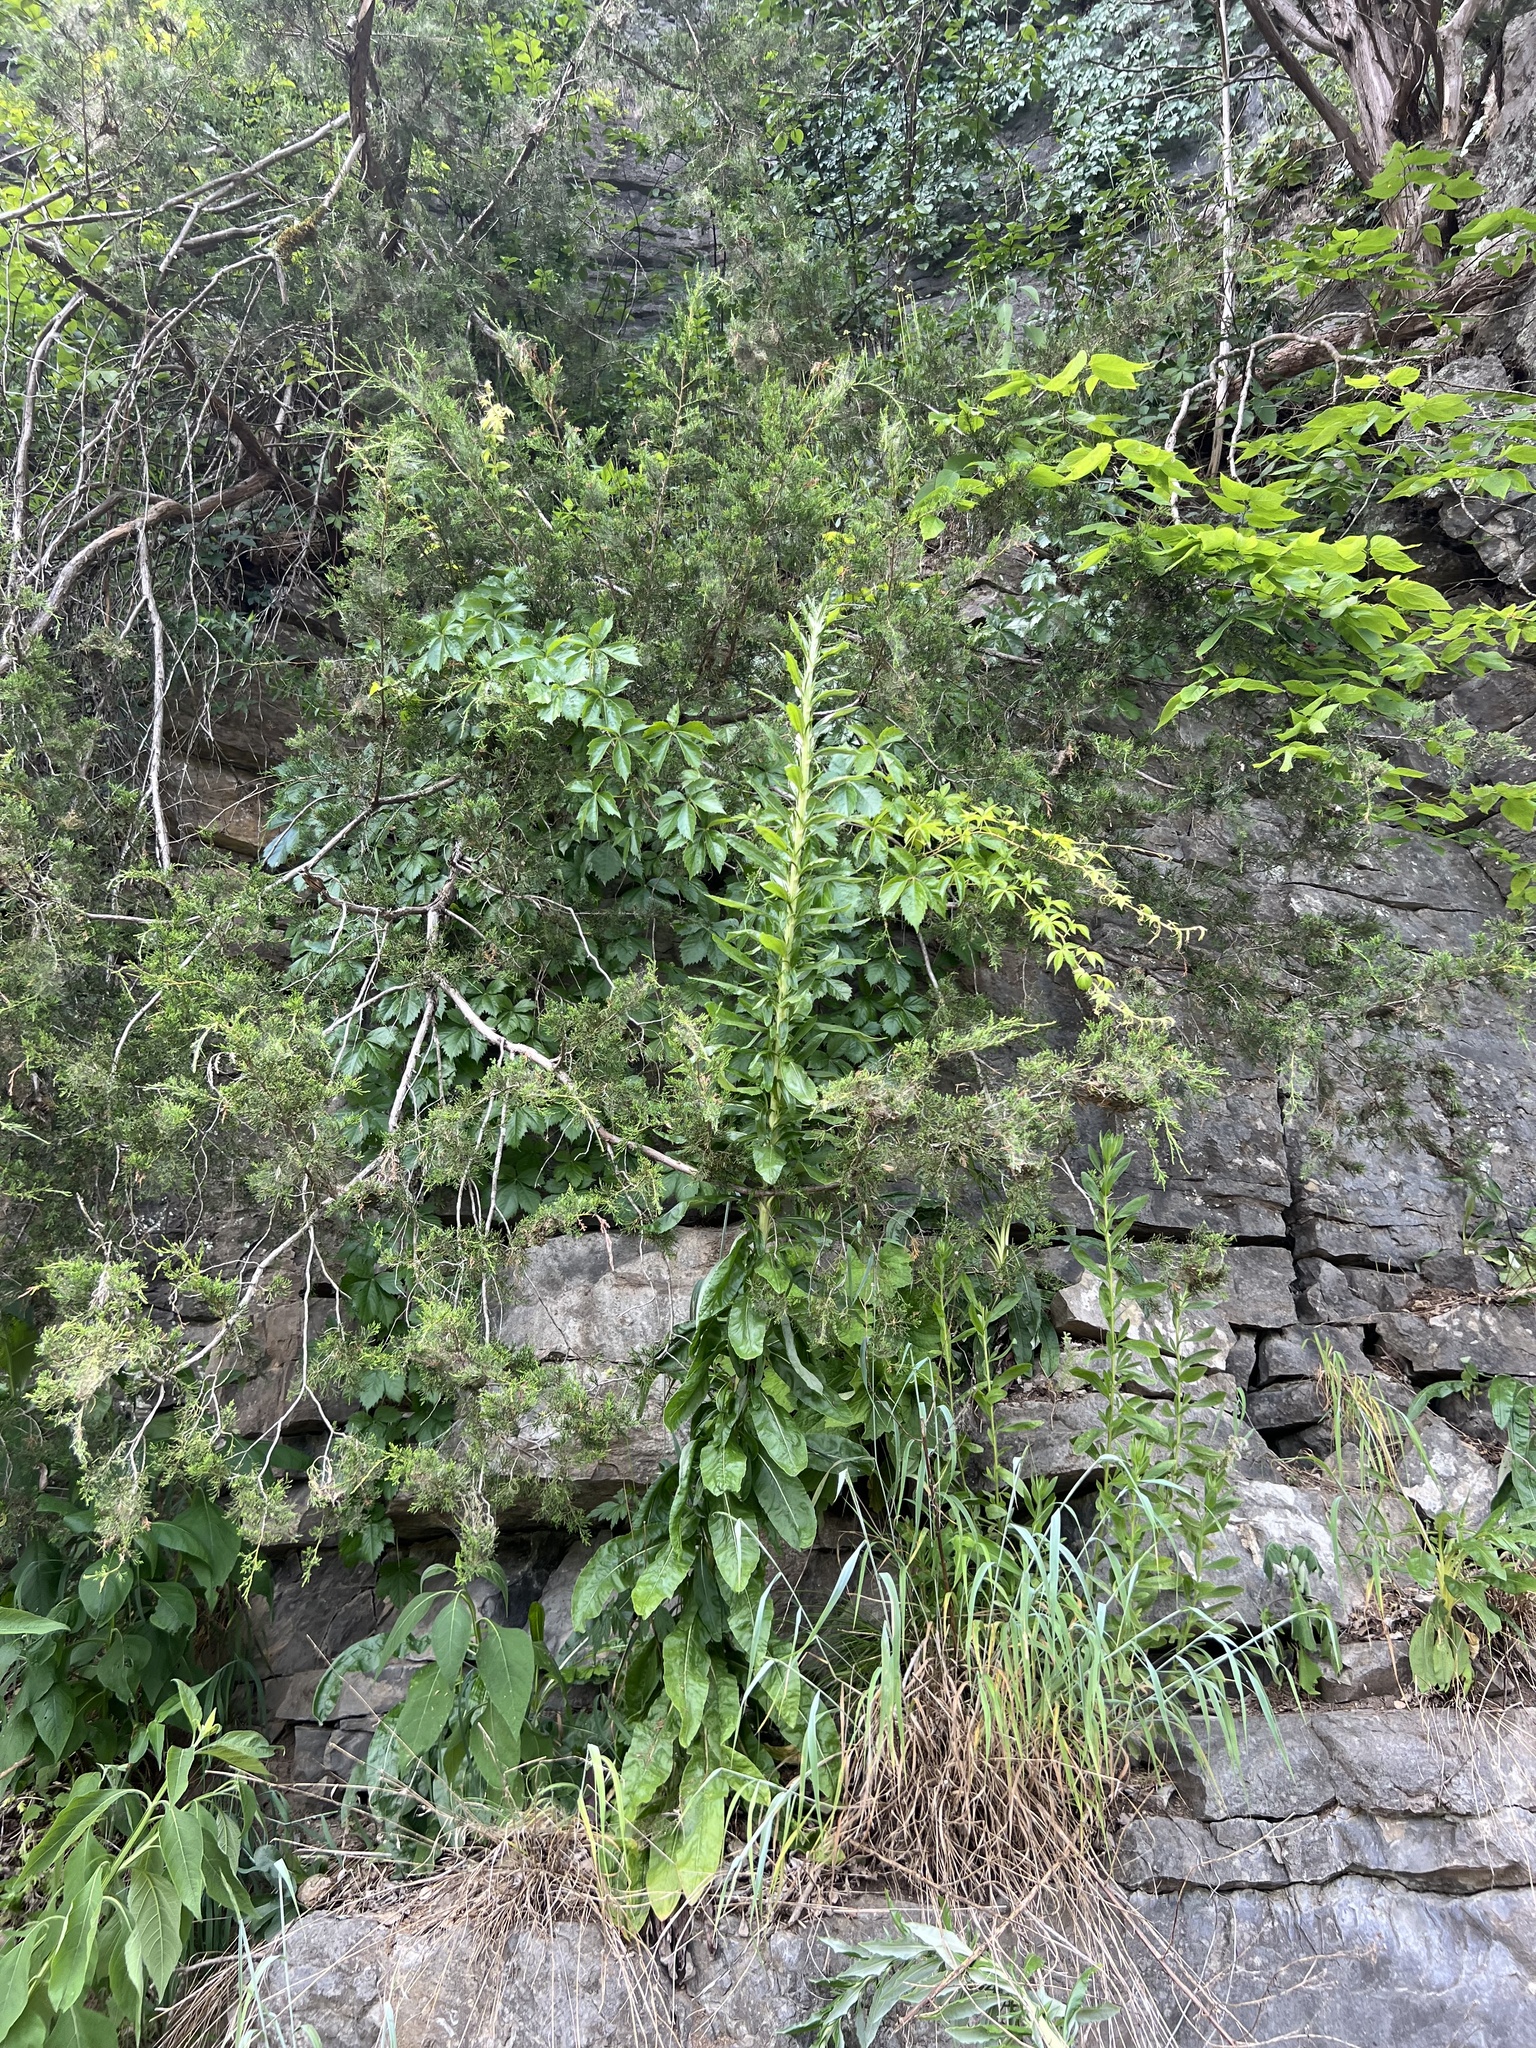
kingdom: Plantae
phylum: Tracheophyta
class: Magnoliopsida
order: Caryophyllales
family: Polygonaceae
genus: Eriogonum
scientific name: Eriogonum longifolium
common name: Longleaf wild buckwheat
